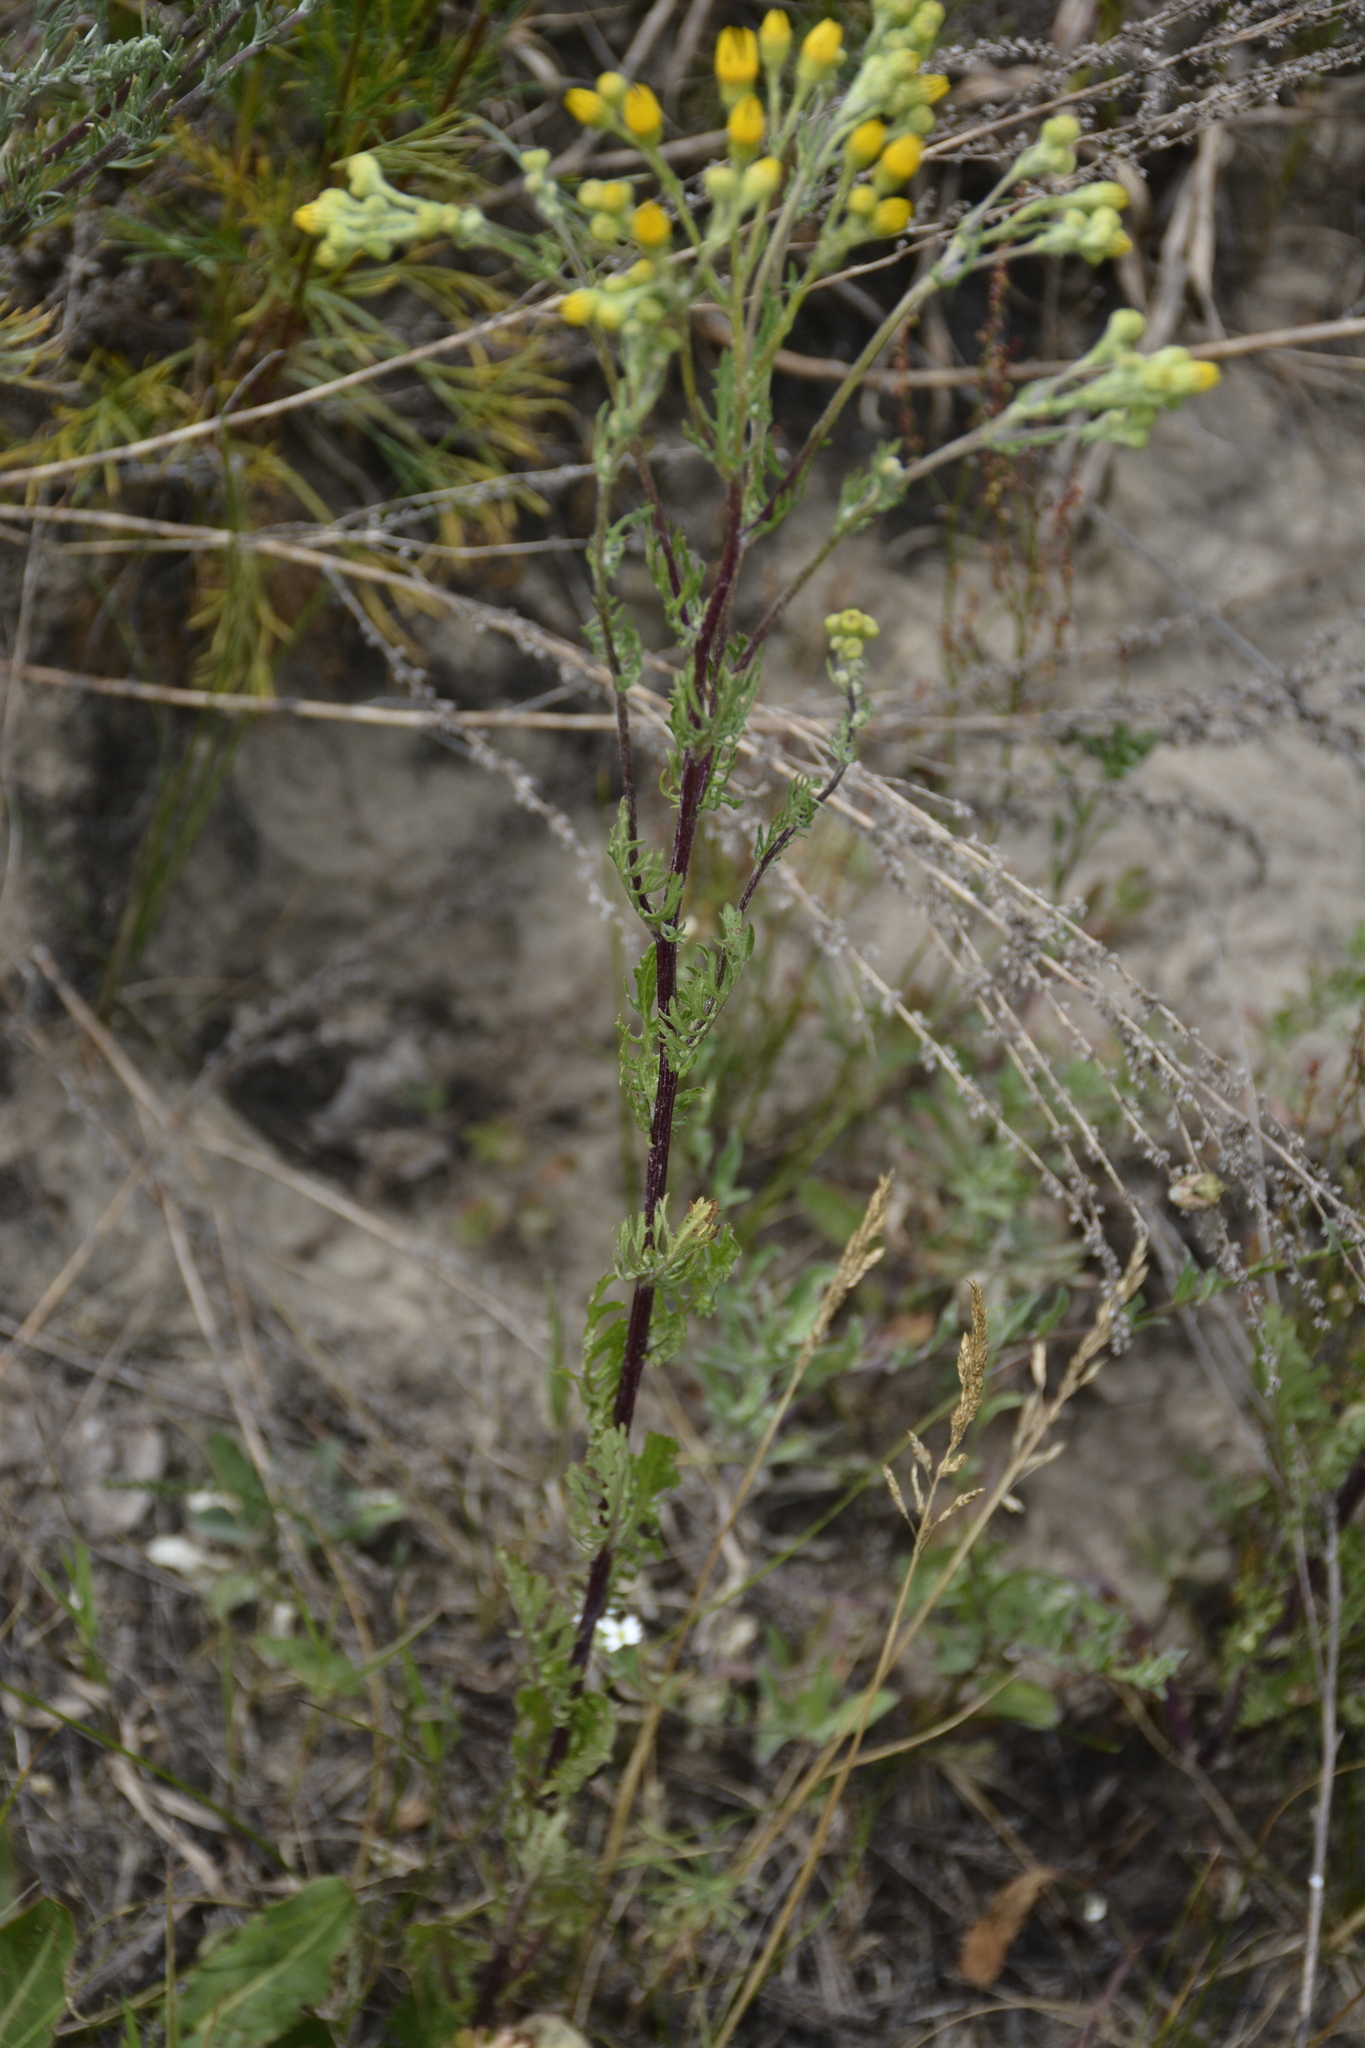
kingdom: Plantae
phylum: Tracheophyta
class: Magnoliopsida
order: Asterales
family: Asteraceae
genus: Jacobaea
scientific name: Jacobaea vulgaris
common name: Stinking willie
